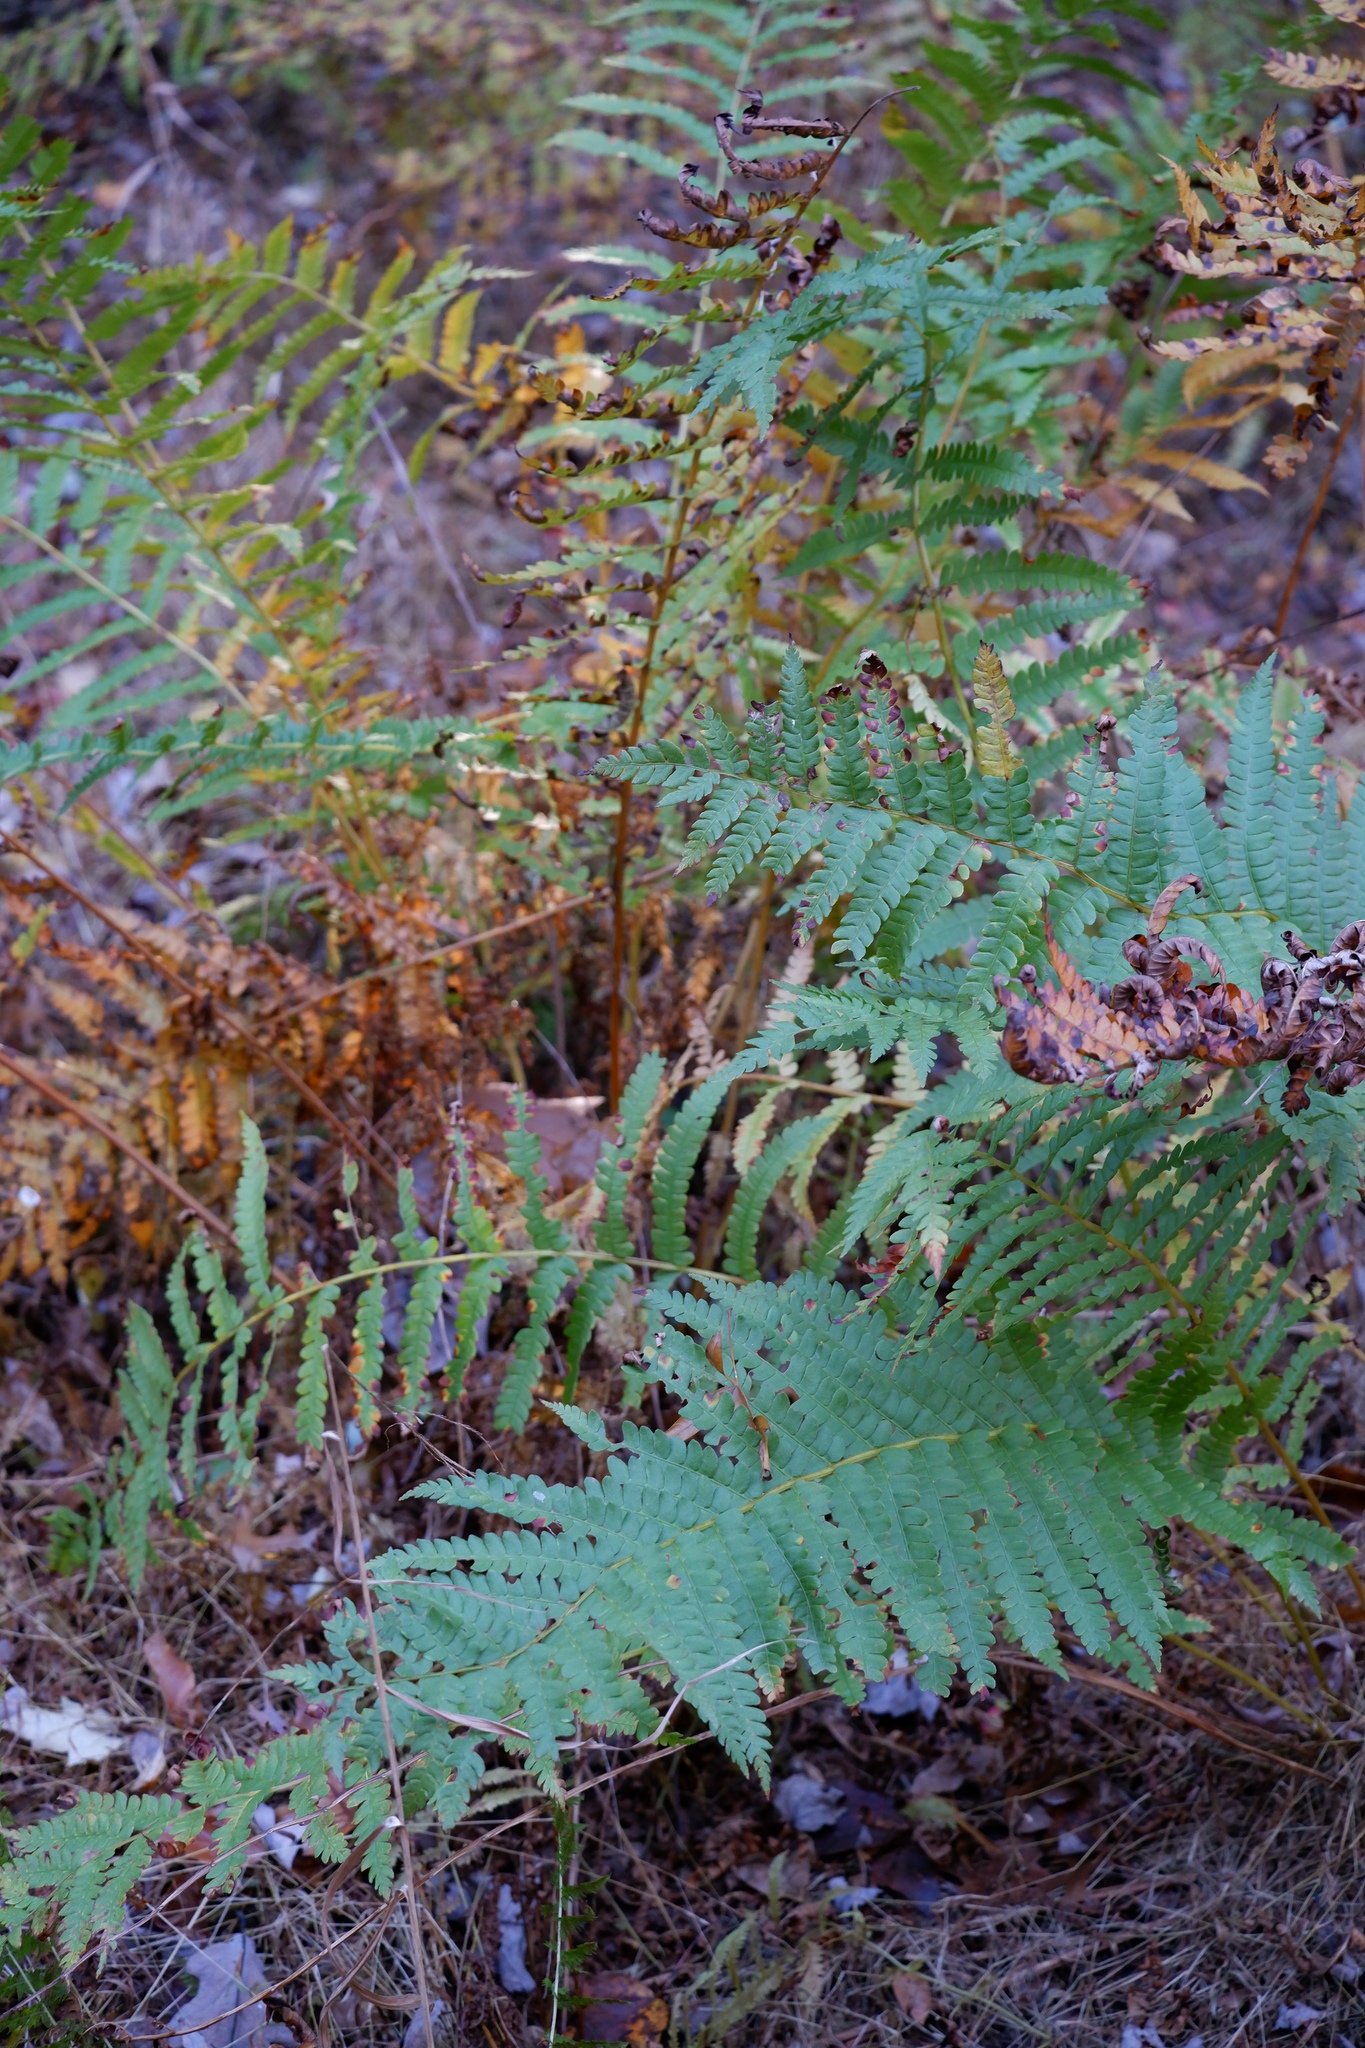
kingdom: Plantae
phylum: Tracheophyta
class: Polypodiopsida
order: Osmundales
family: Osmundaceae
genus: Osmundastrum
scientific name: Osmundastrum cinnamomeum
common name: Cinnamon fern
